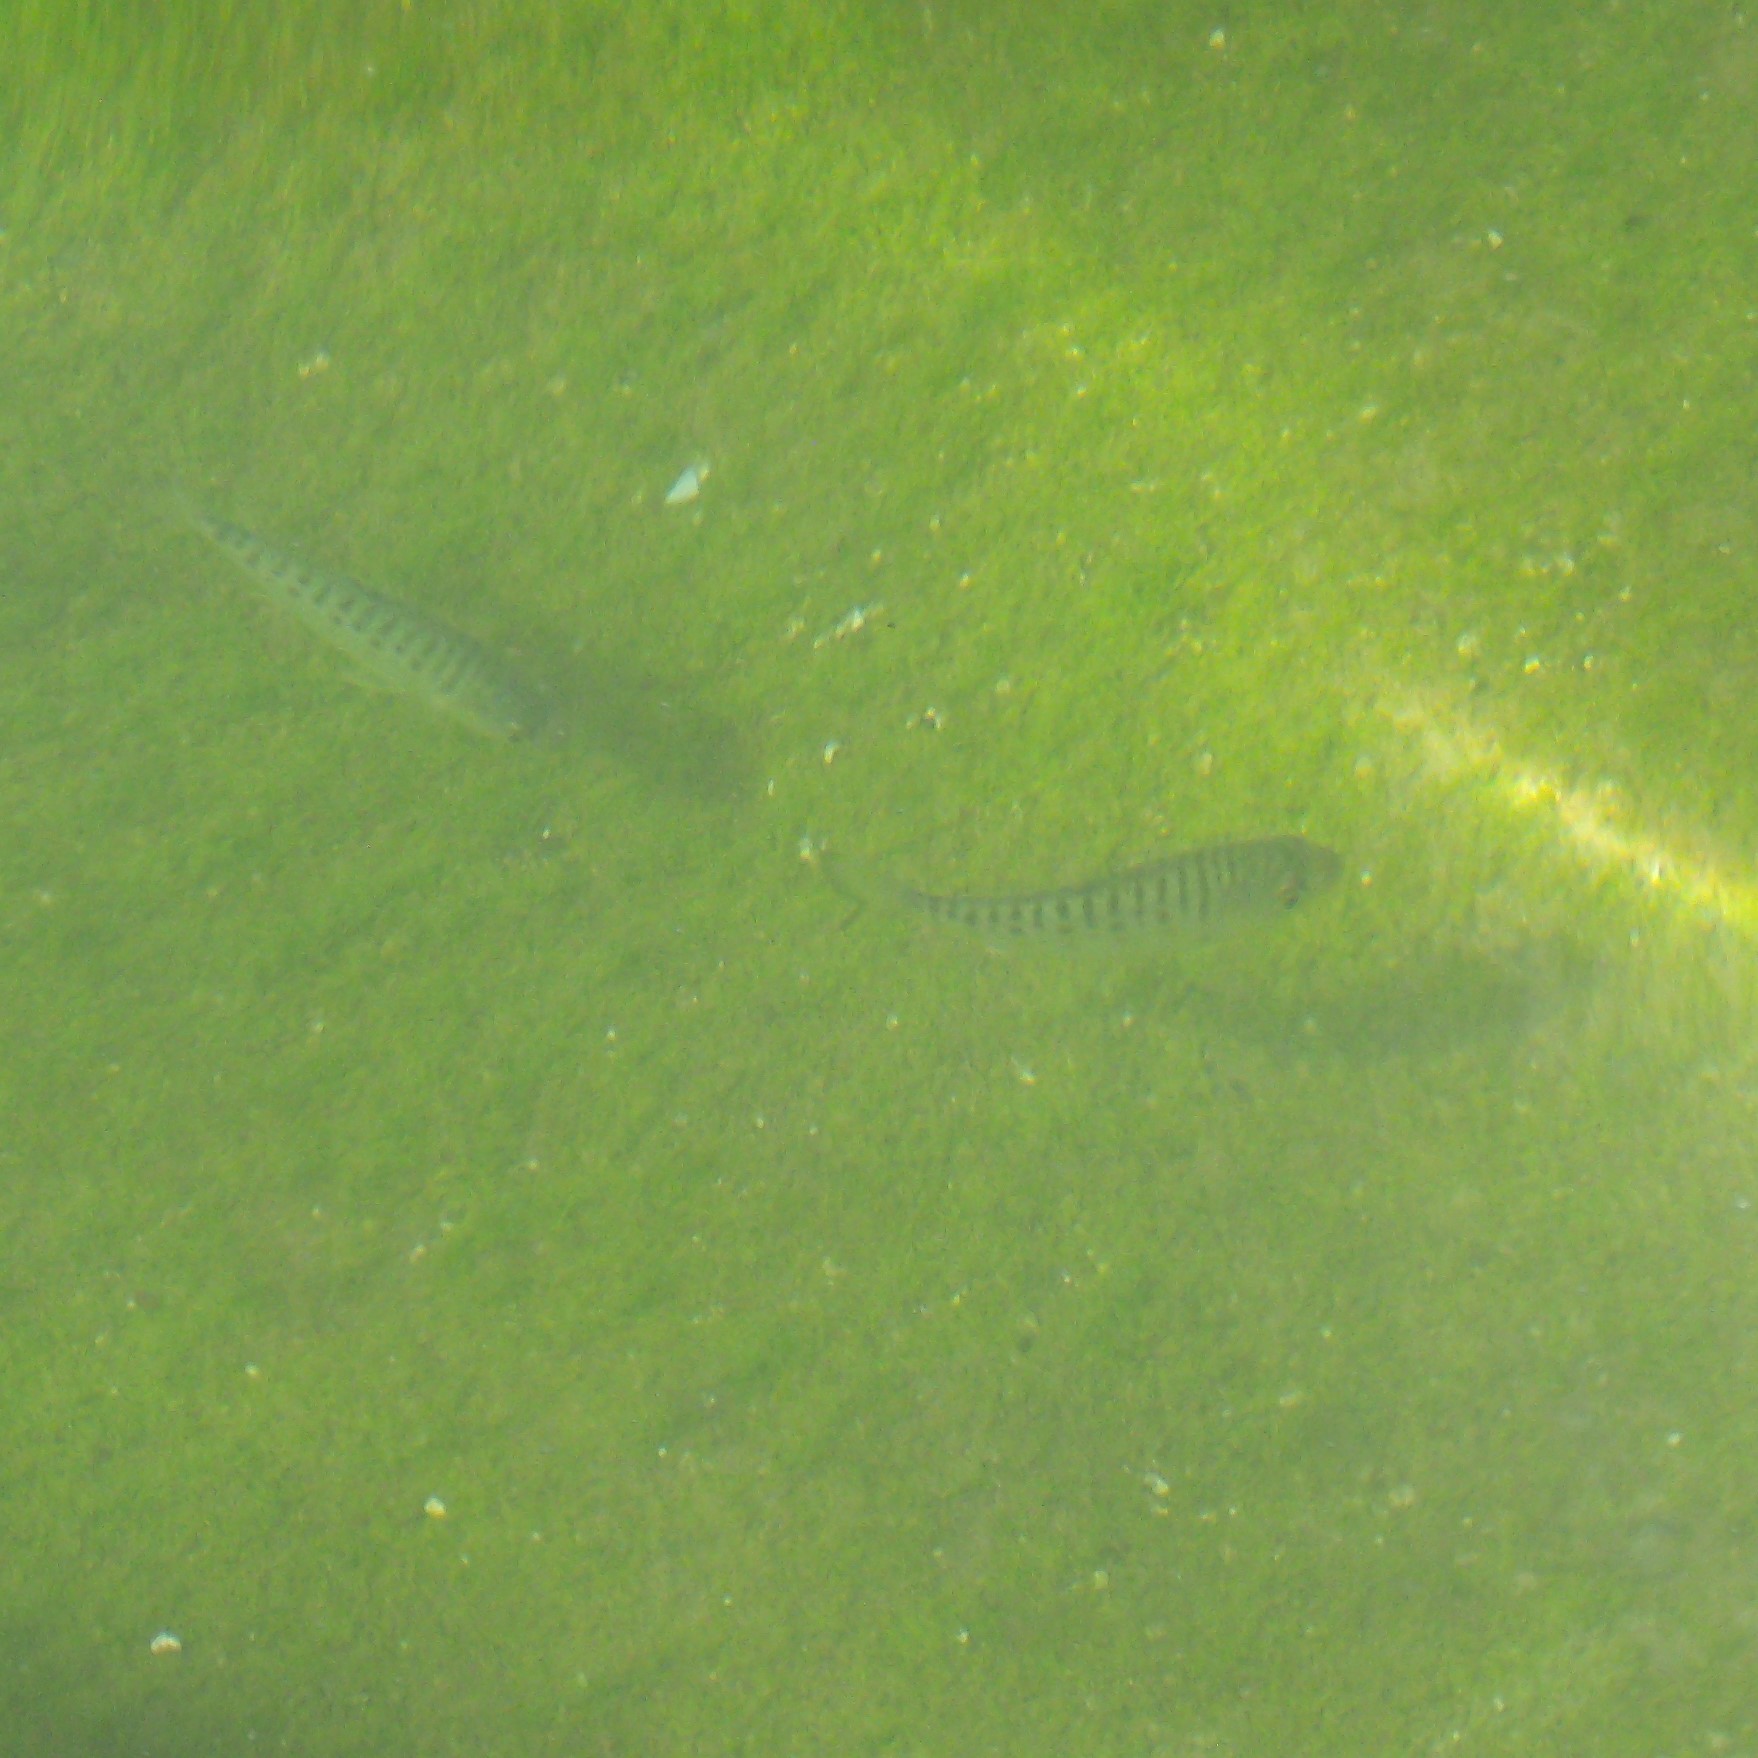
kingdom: Animalia
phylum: Chordata
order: Perciformes
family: Arripidae
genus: Arripis
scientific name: Arripis trutta
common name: Kahawai
